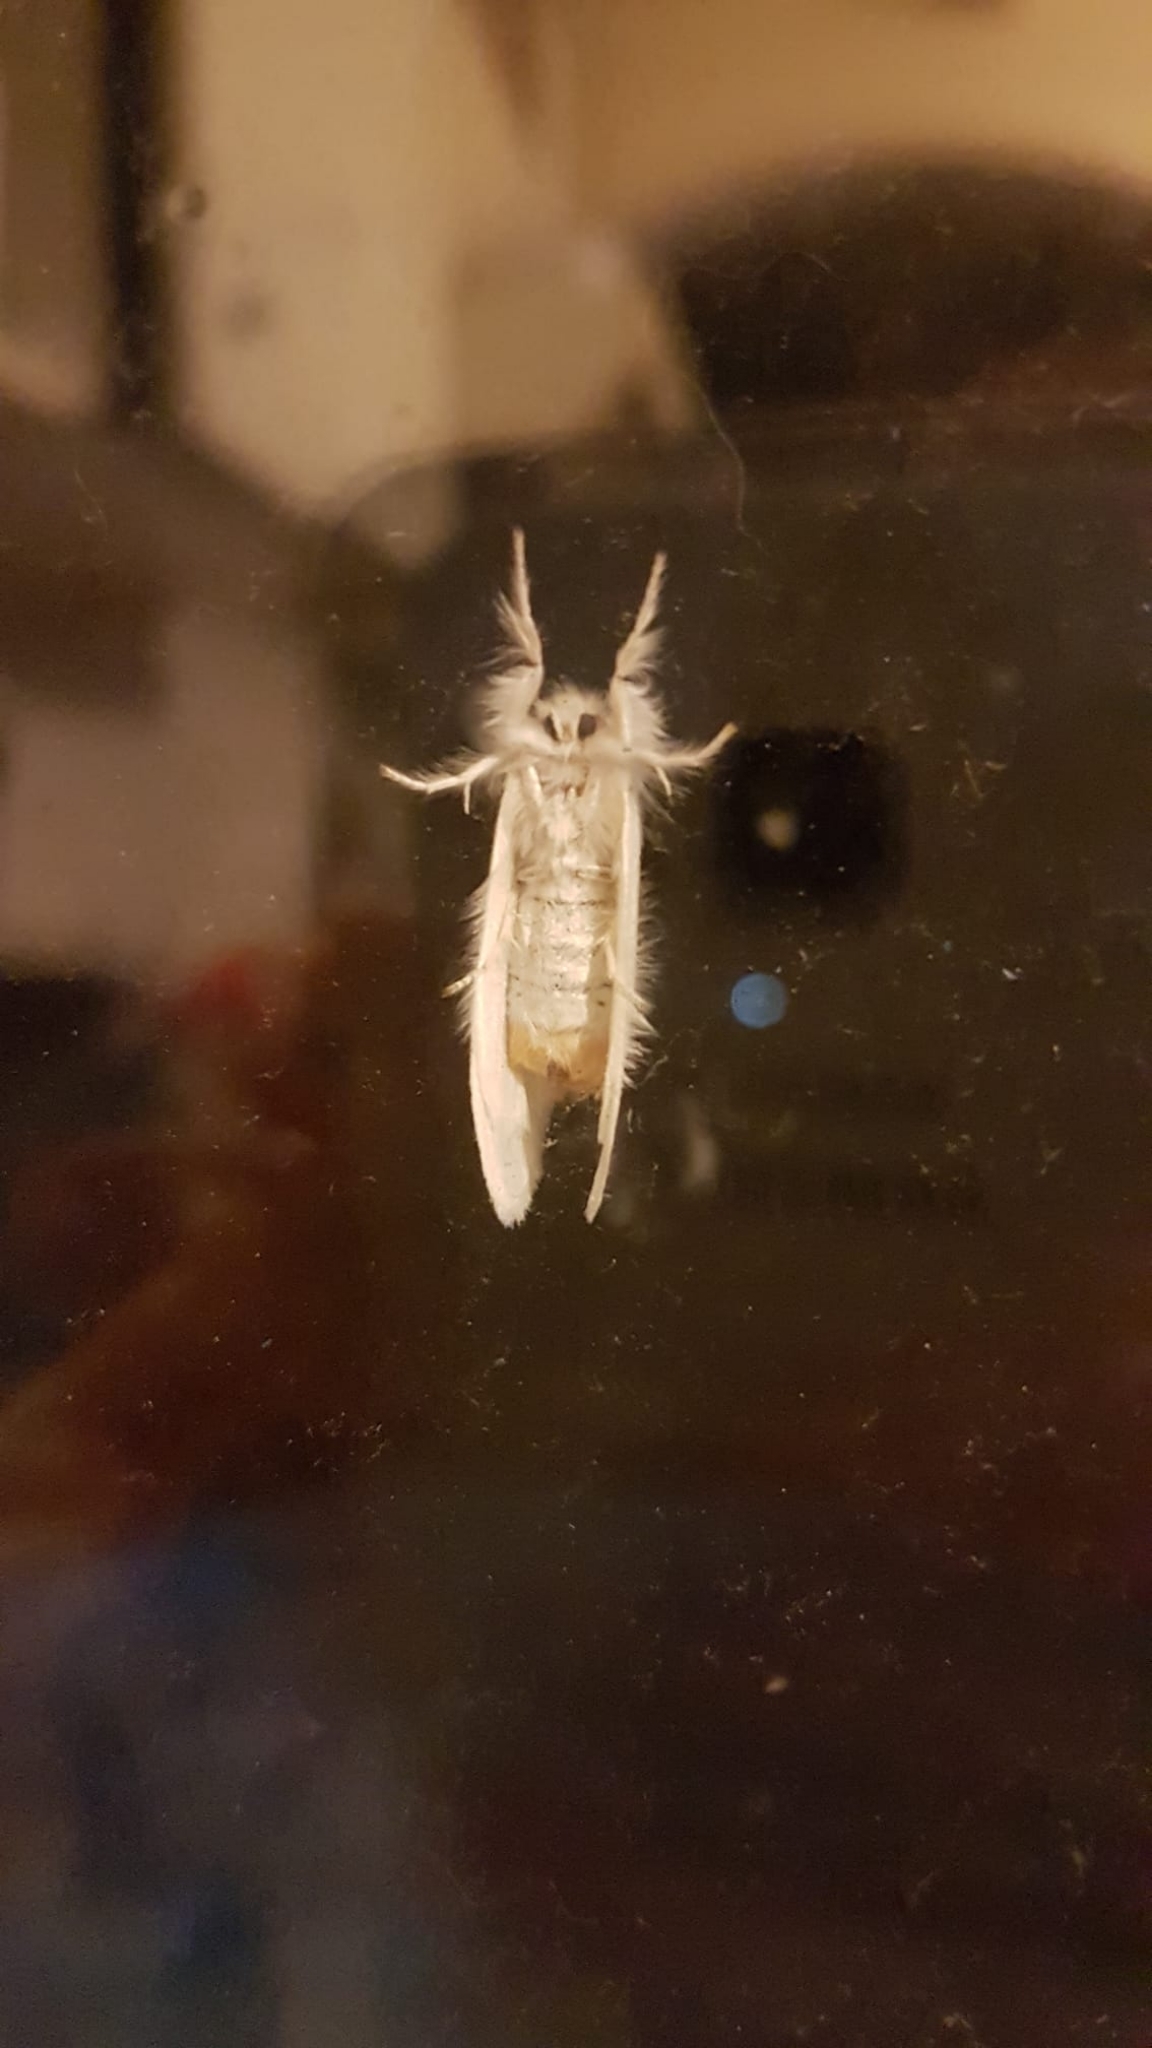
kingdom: Animalia
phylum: Arthropoda
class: Insecta
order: Lepidoptera
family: Erebidae
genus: Sphrageidus
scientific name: Sphrageidus similis
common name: Yellow-tail
